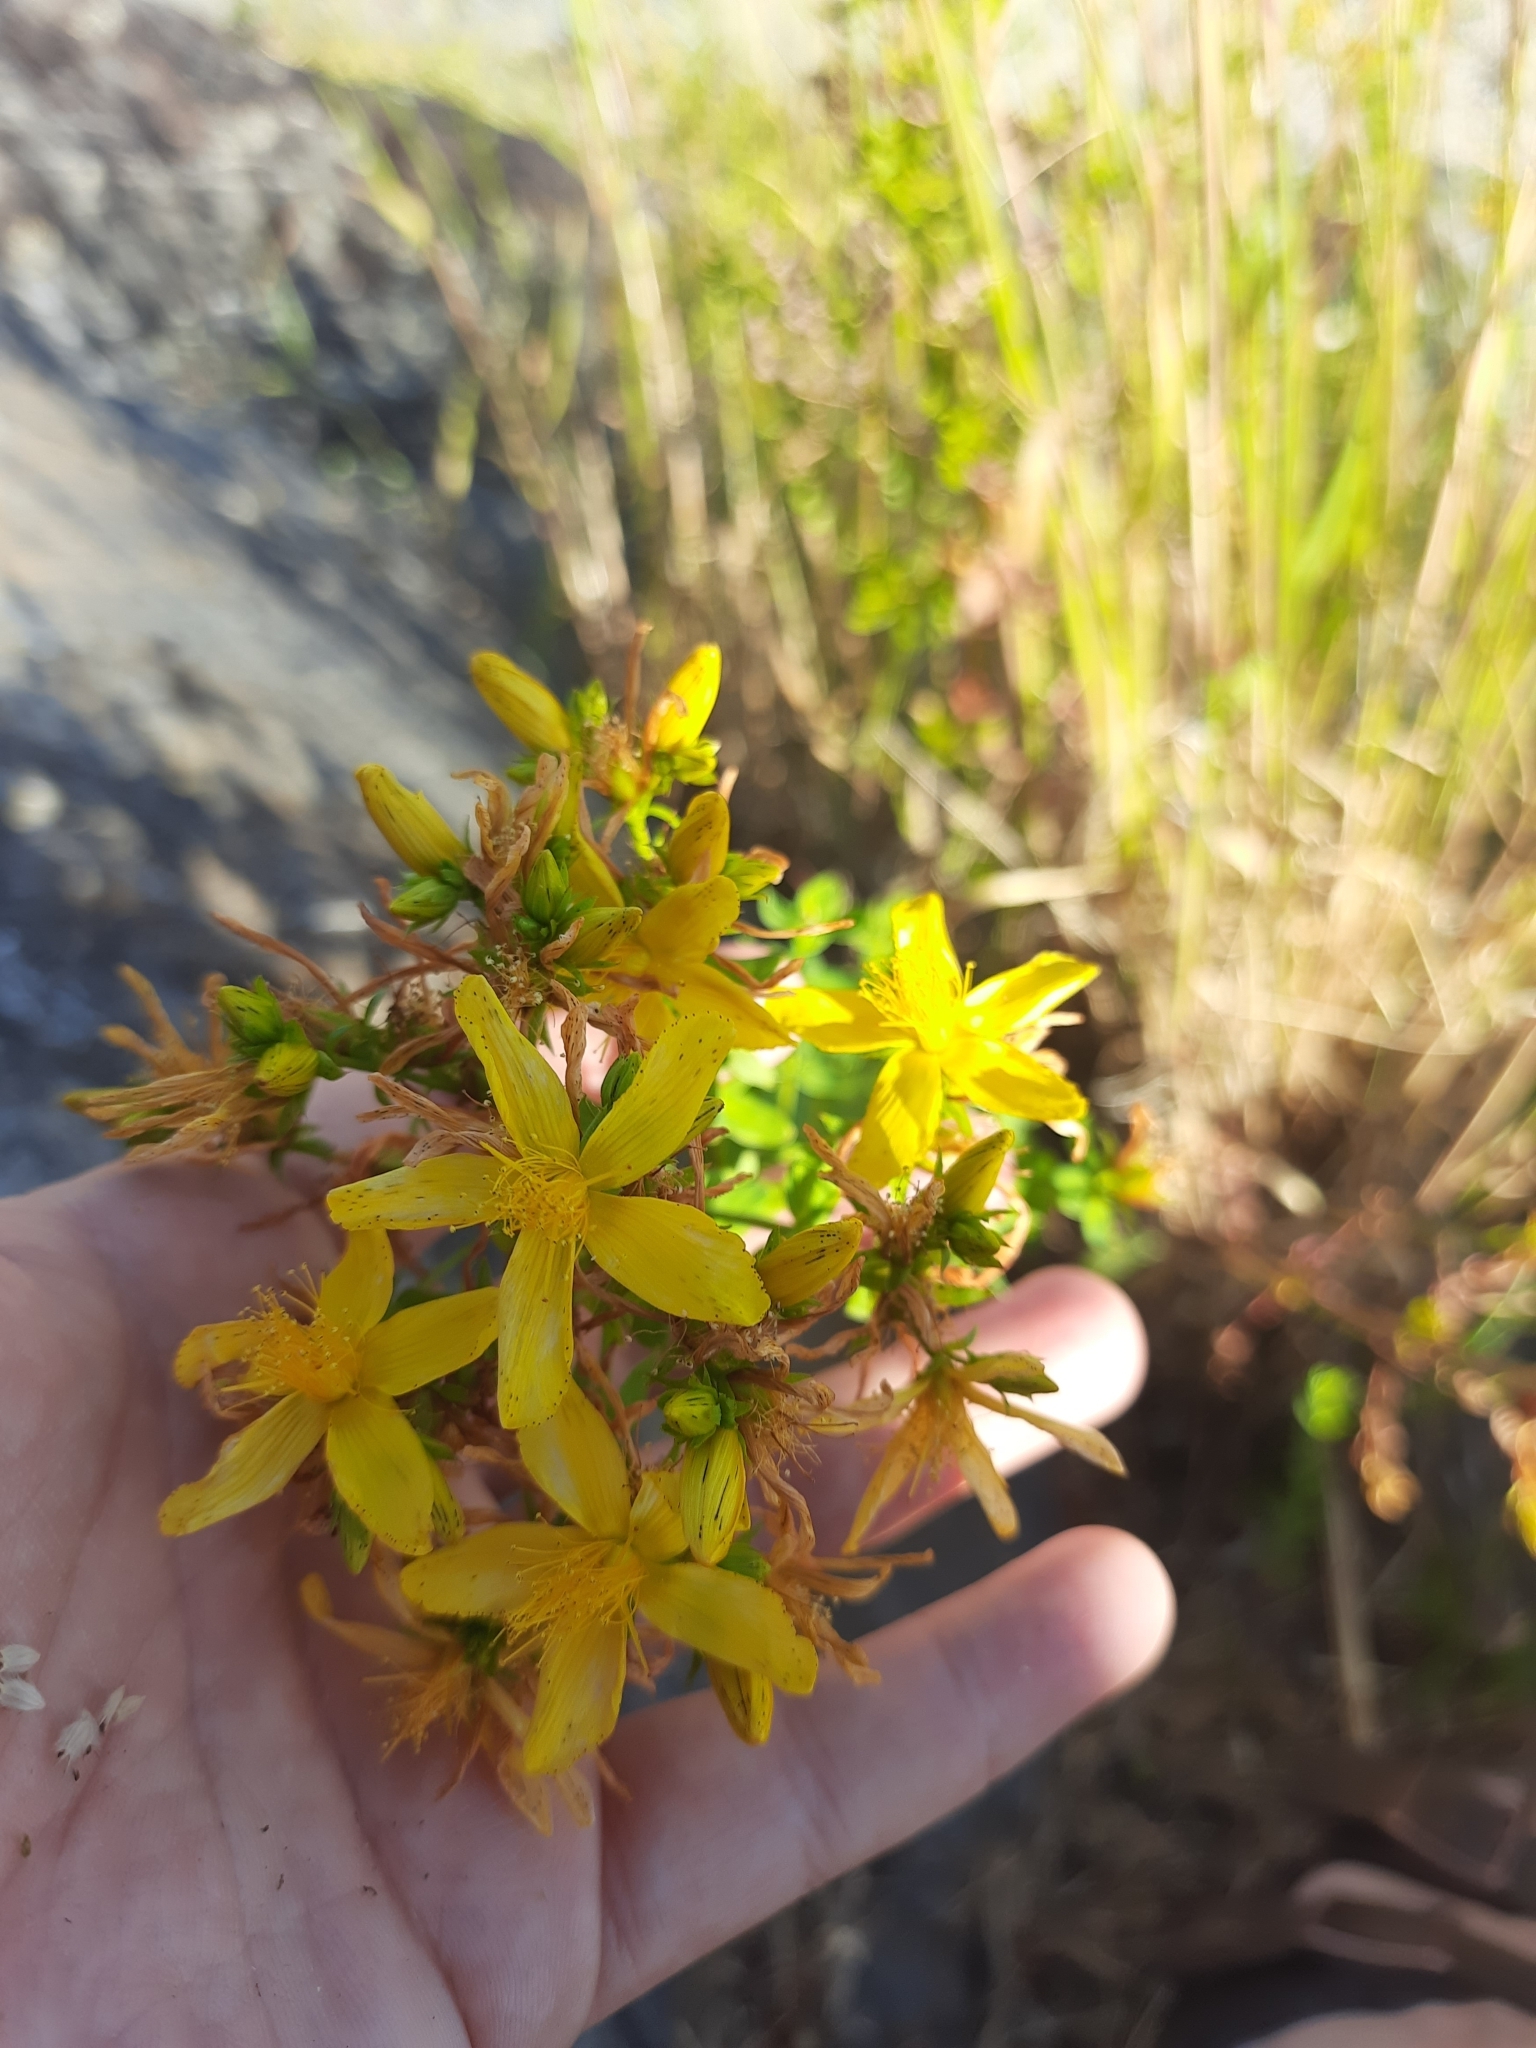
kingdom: Plantae
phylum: Tracheophyta
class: Magnoliopsida
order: Malpighiales
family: Hypericaceae
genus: Hypericum
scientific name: Hypericum perforatum
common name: Common st. johnswort
